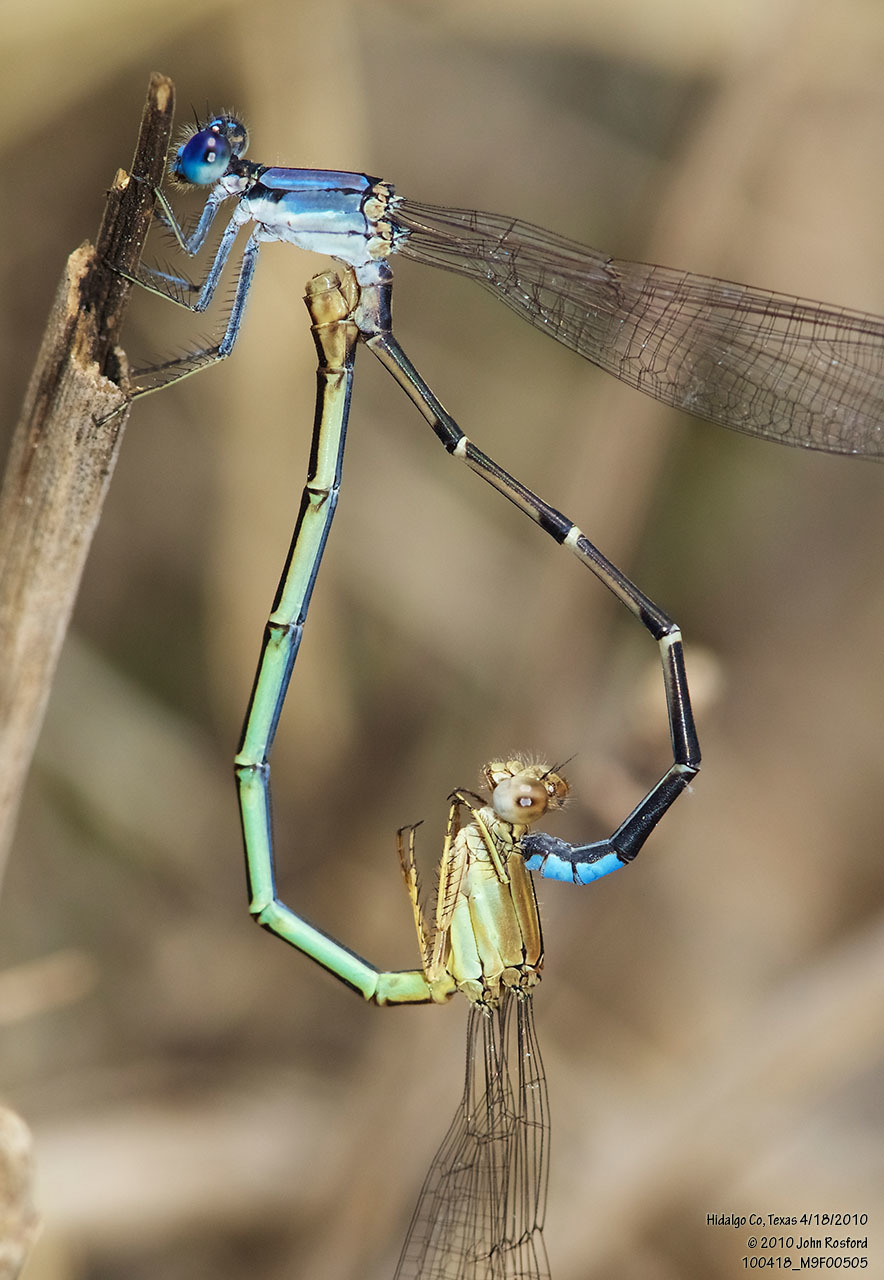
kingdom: Animalia
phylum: Arthropoda
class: Insecta
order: Odonata
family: Coenagrionidae
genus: Argia
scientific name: Argia apicalis
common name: Blue-fronted dancer
